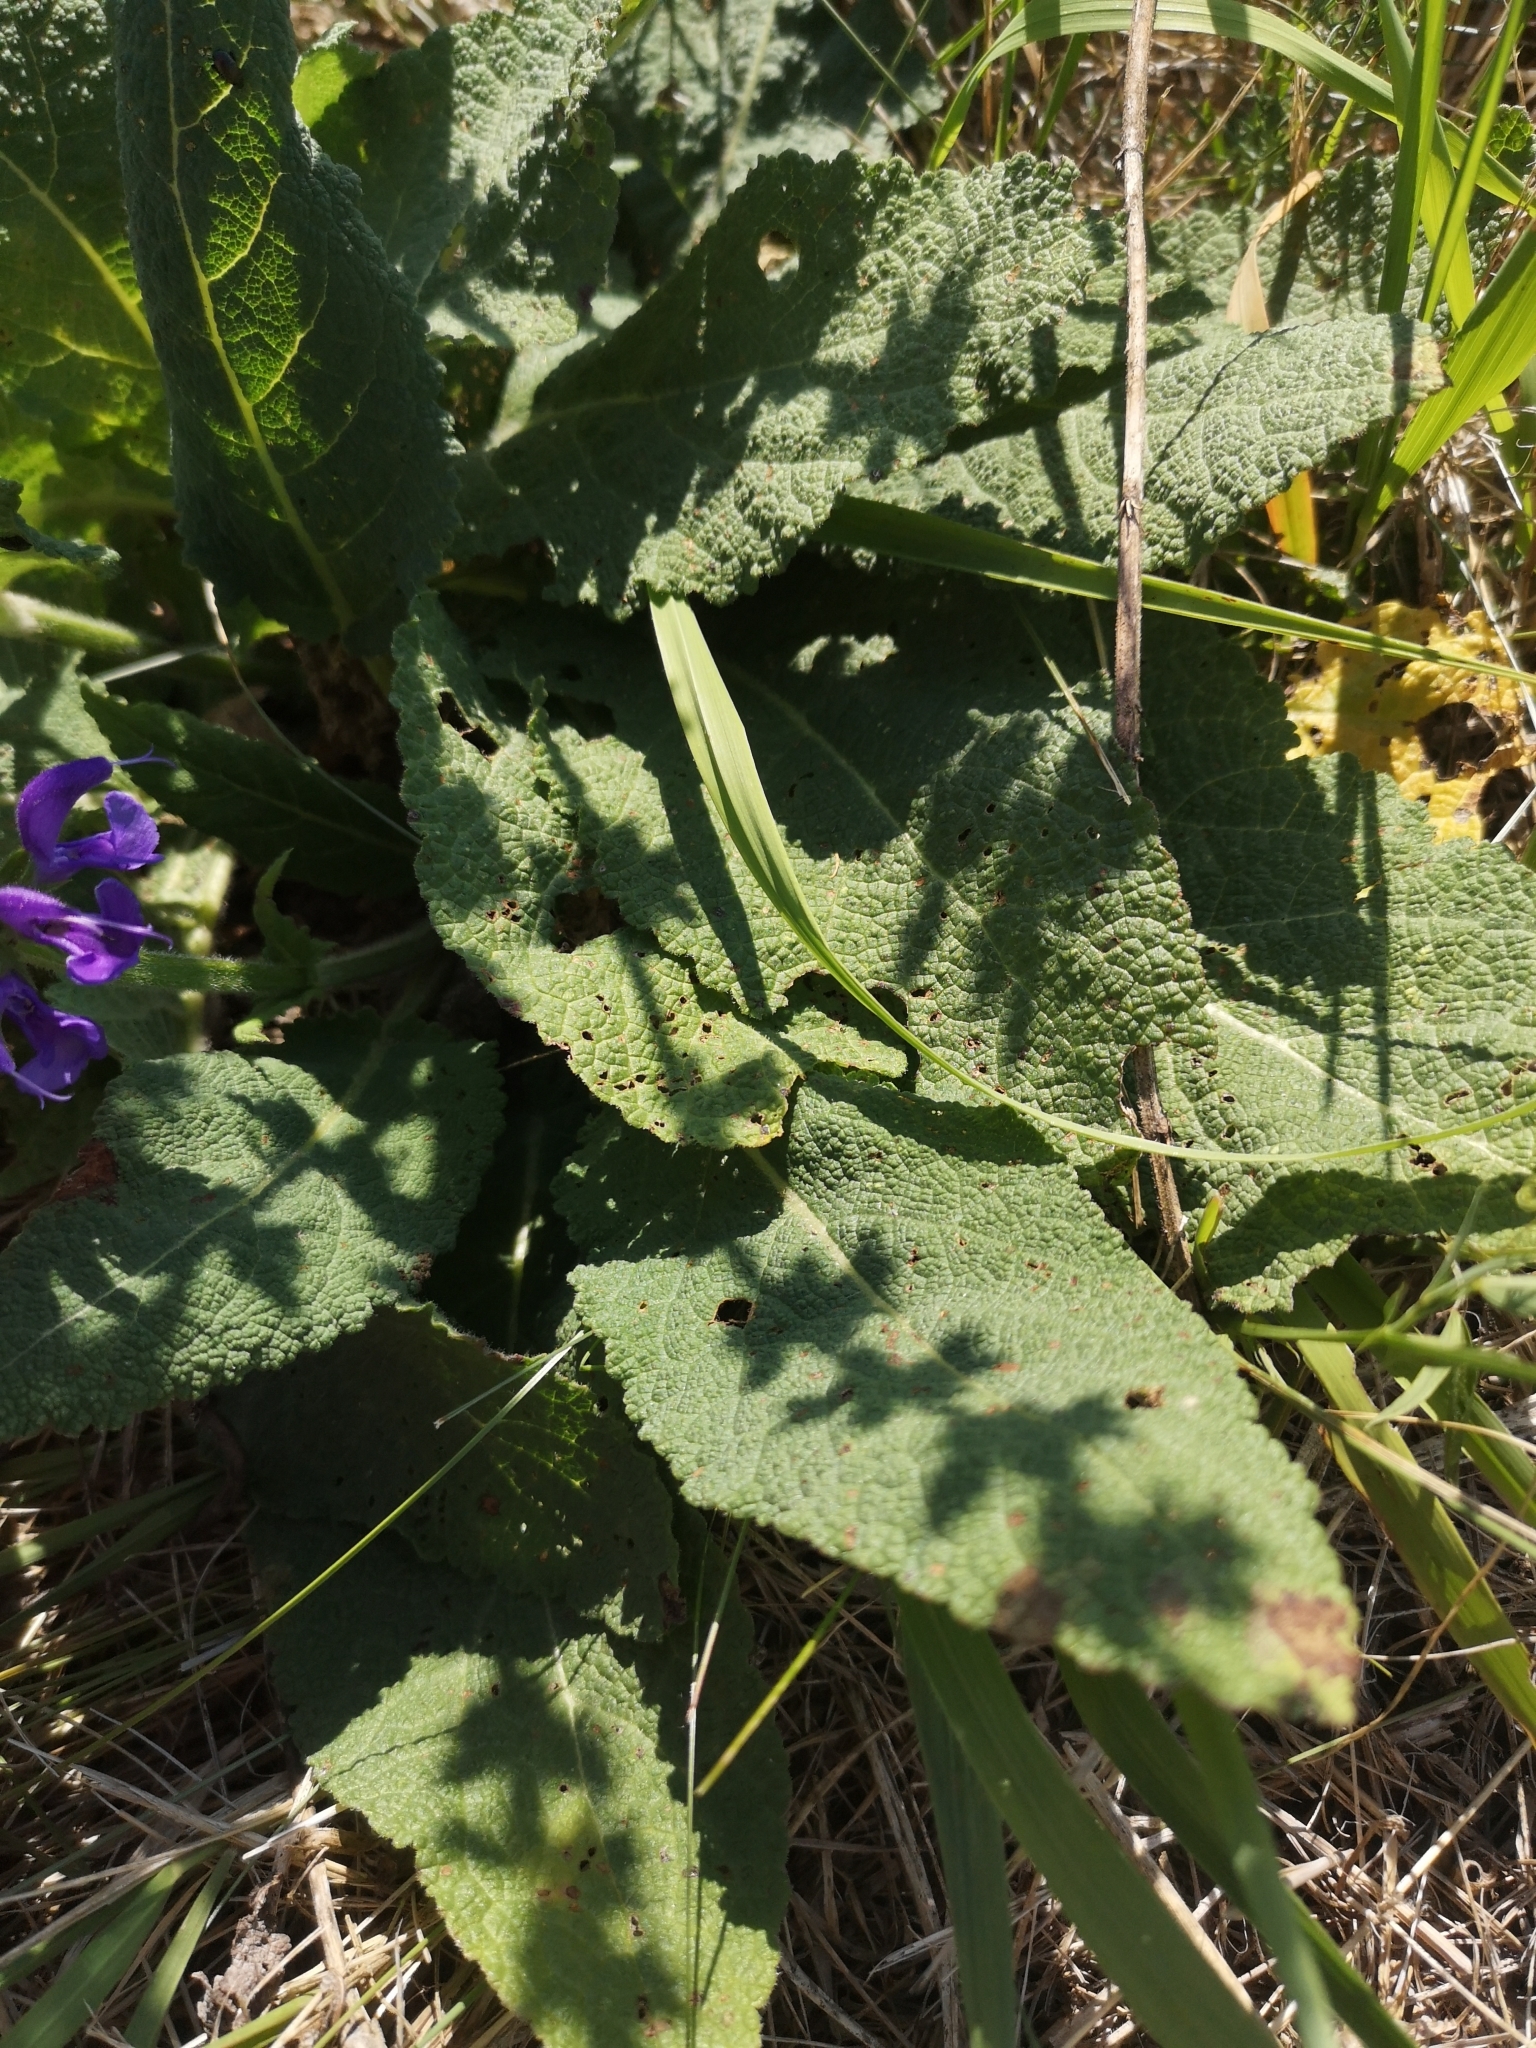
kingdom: Plantae
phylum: Tracheophyta
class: Magnoliopsida
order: Lamiales
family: Lamiaceae
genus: Salvia
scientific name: Salvia pratensis
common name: Meadow sage
